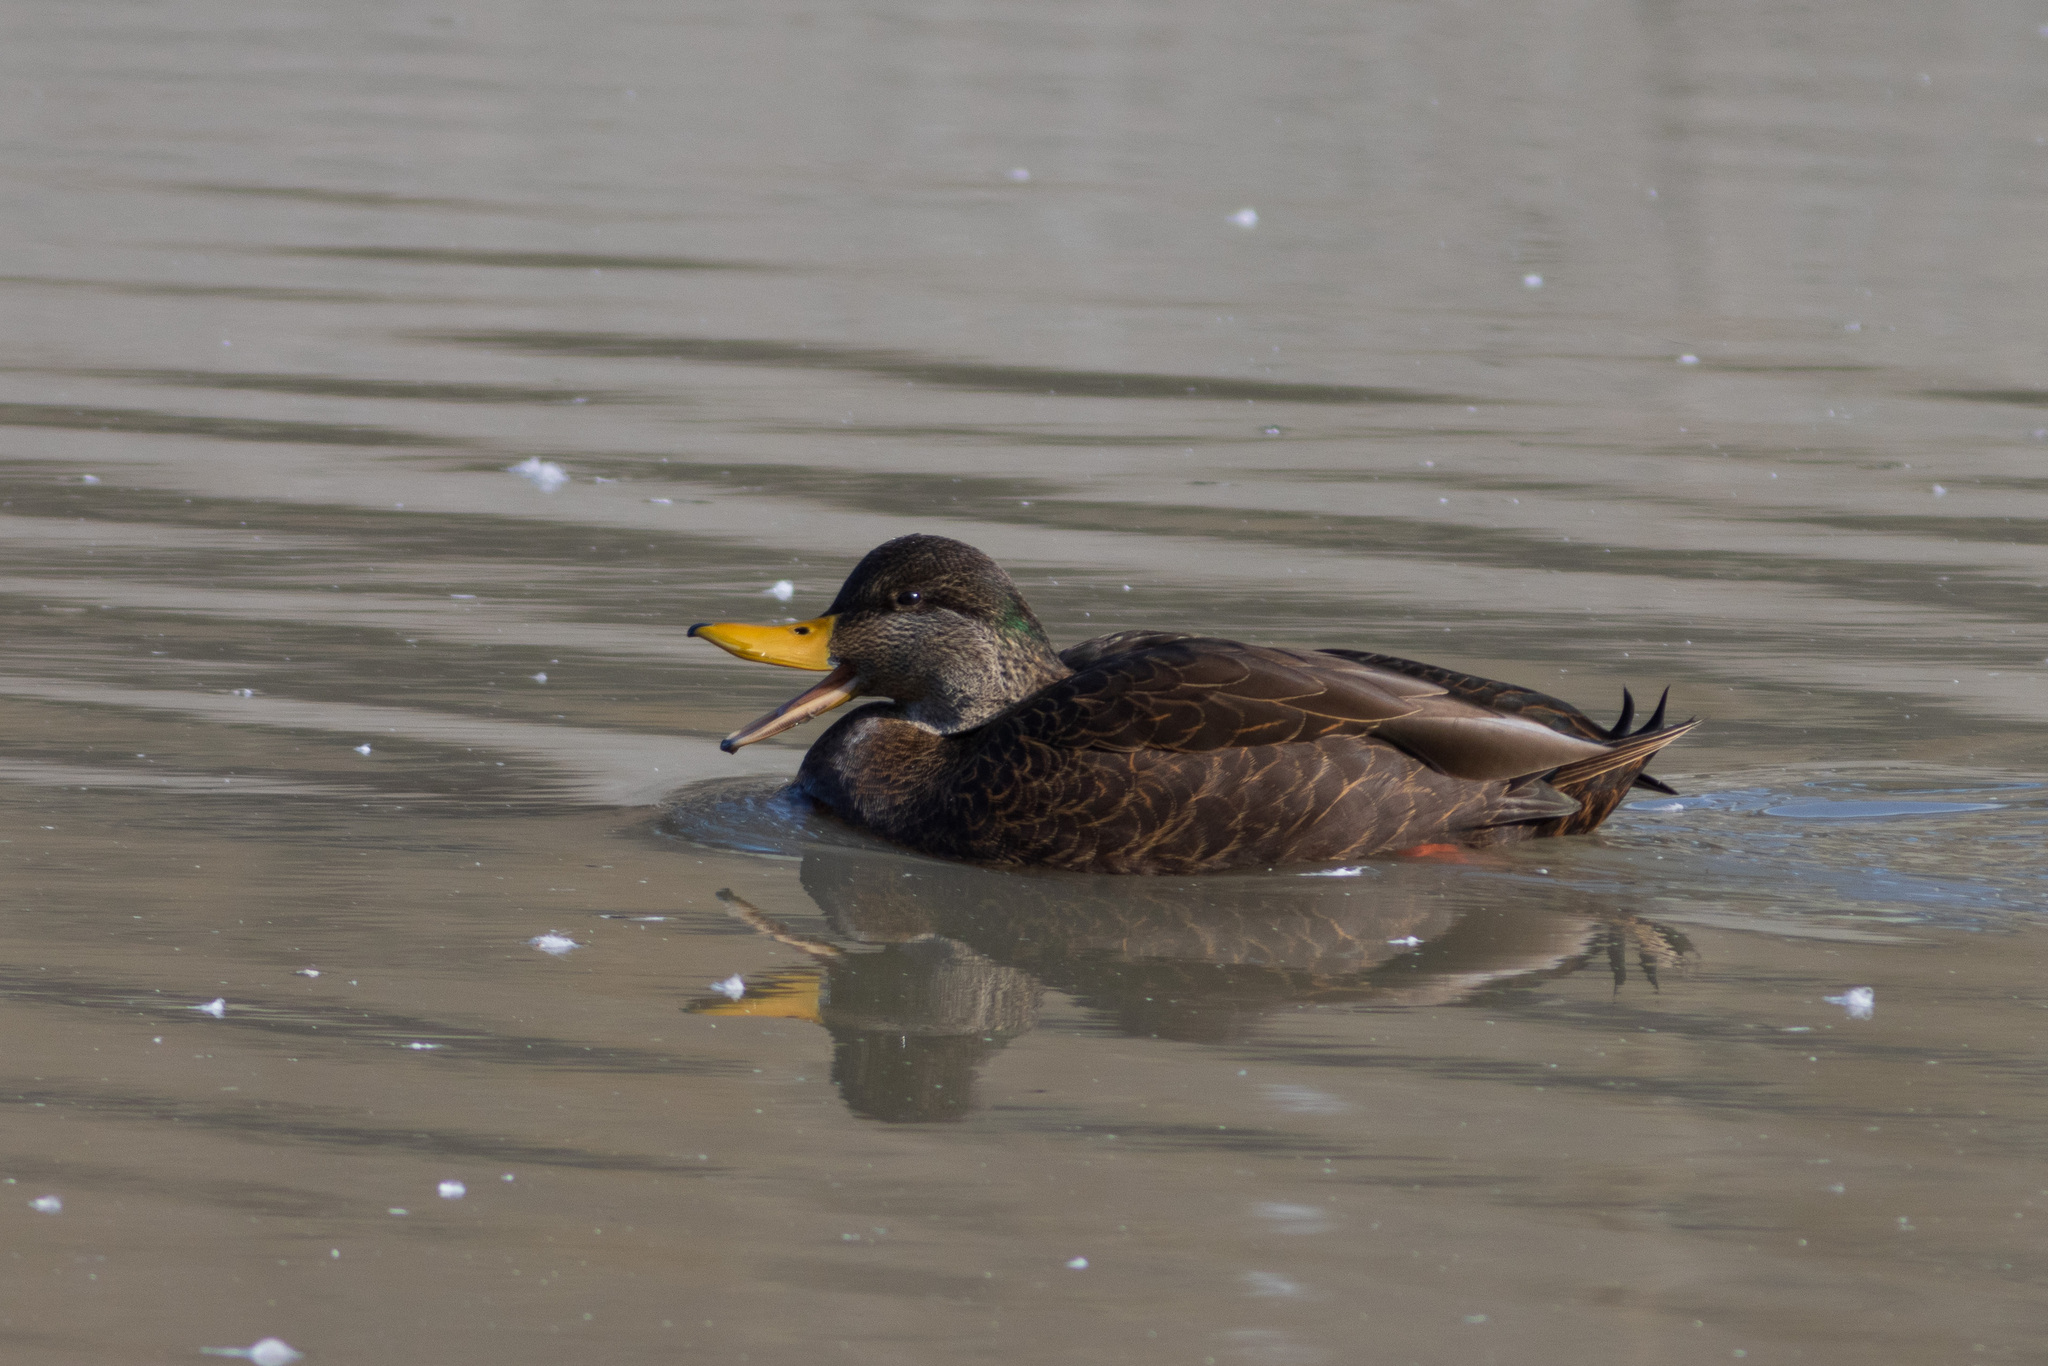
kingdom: Animalia
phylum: Chordata
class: Aves
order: Anseriformes
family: Anatidae
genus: Anas
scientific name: Anas
